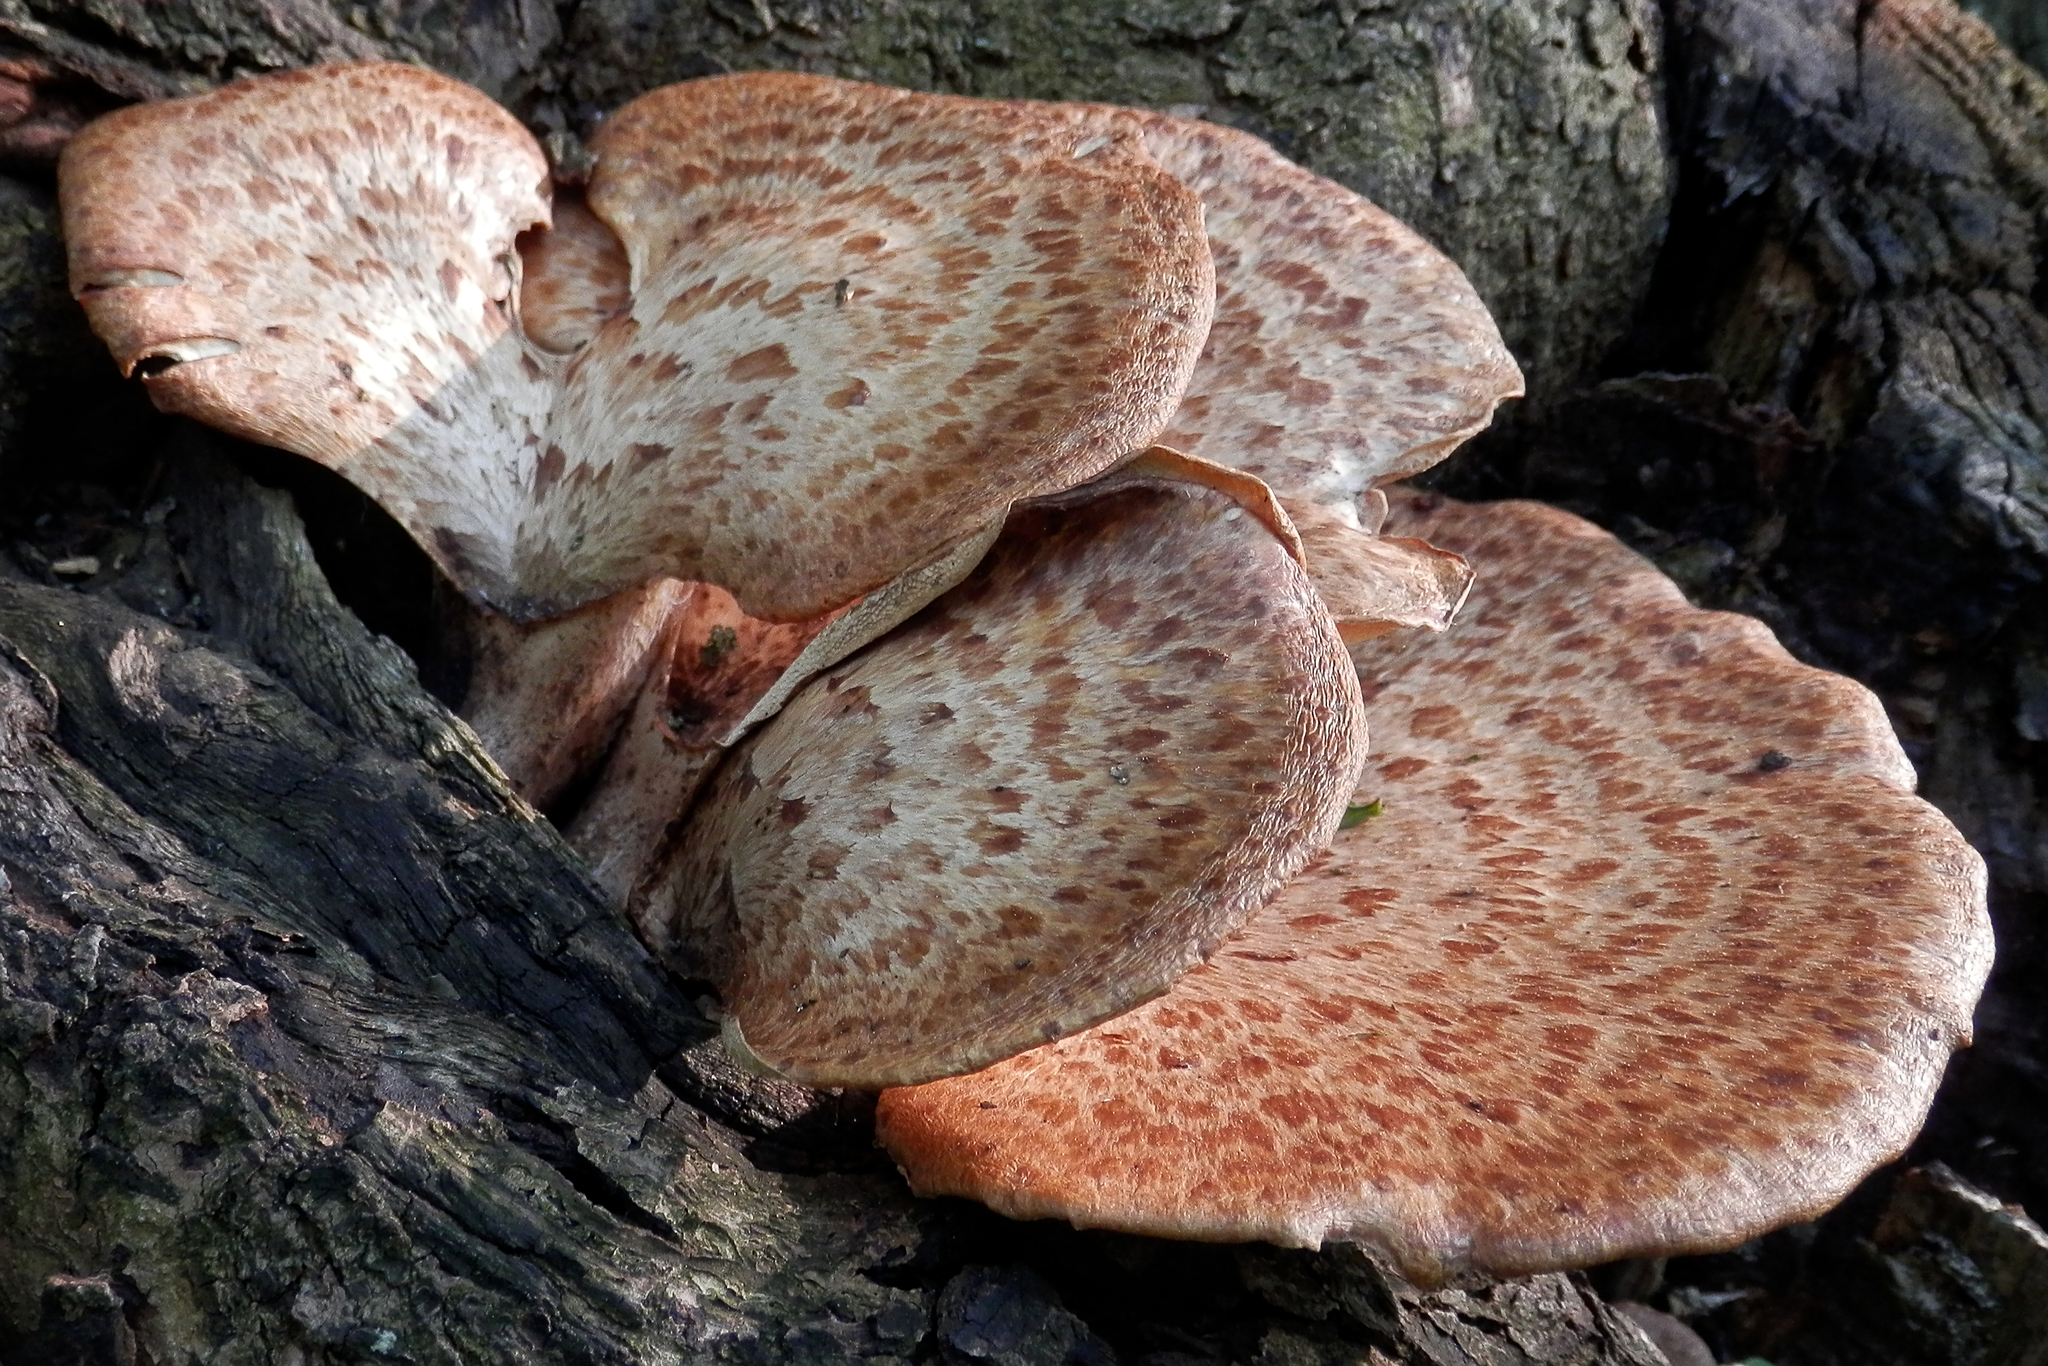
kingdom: Fungi
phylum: Basidiomycota
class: Agaricomycetes
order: Polyporales
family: Polyporaceae
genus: Cerioporus
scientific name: Cerioporus squamosus
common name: Dryad's saddle
